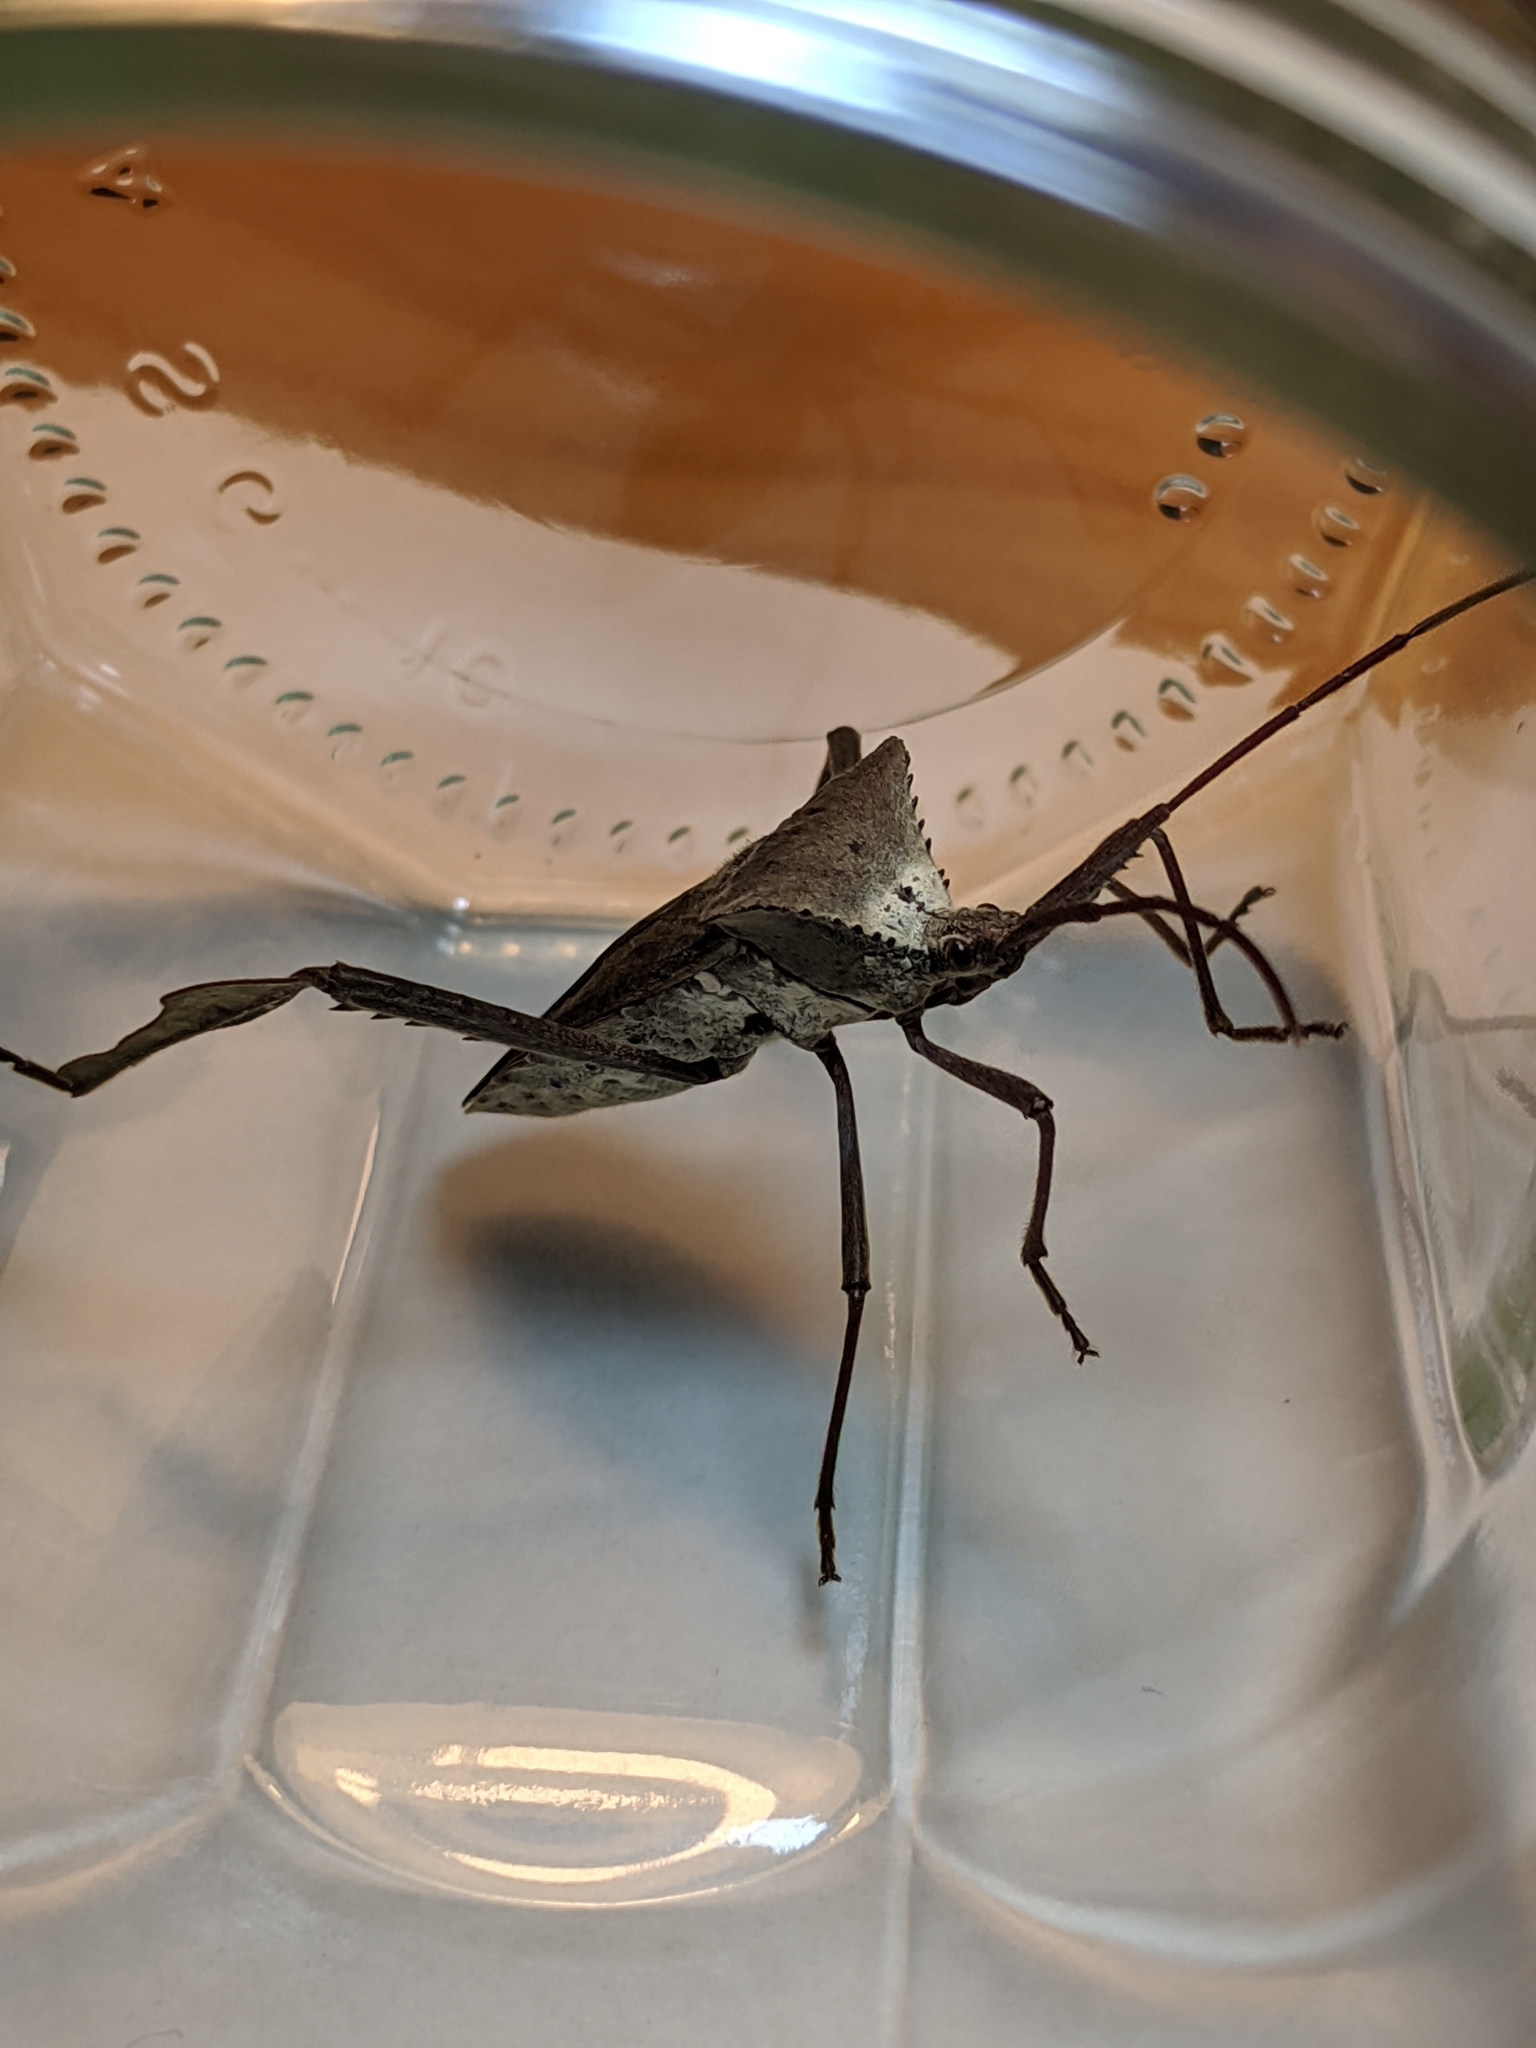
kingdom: Animalia
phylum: Arthropoda
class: Insecta
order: Hemiptera
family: Coreidae
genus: Acanthocephala
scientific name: Acanthocephala declivis
